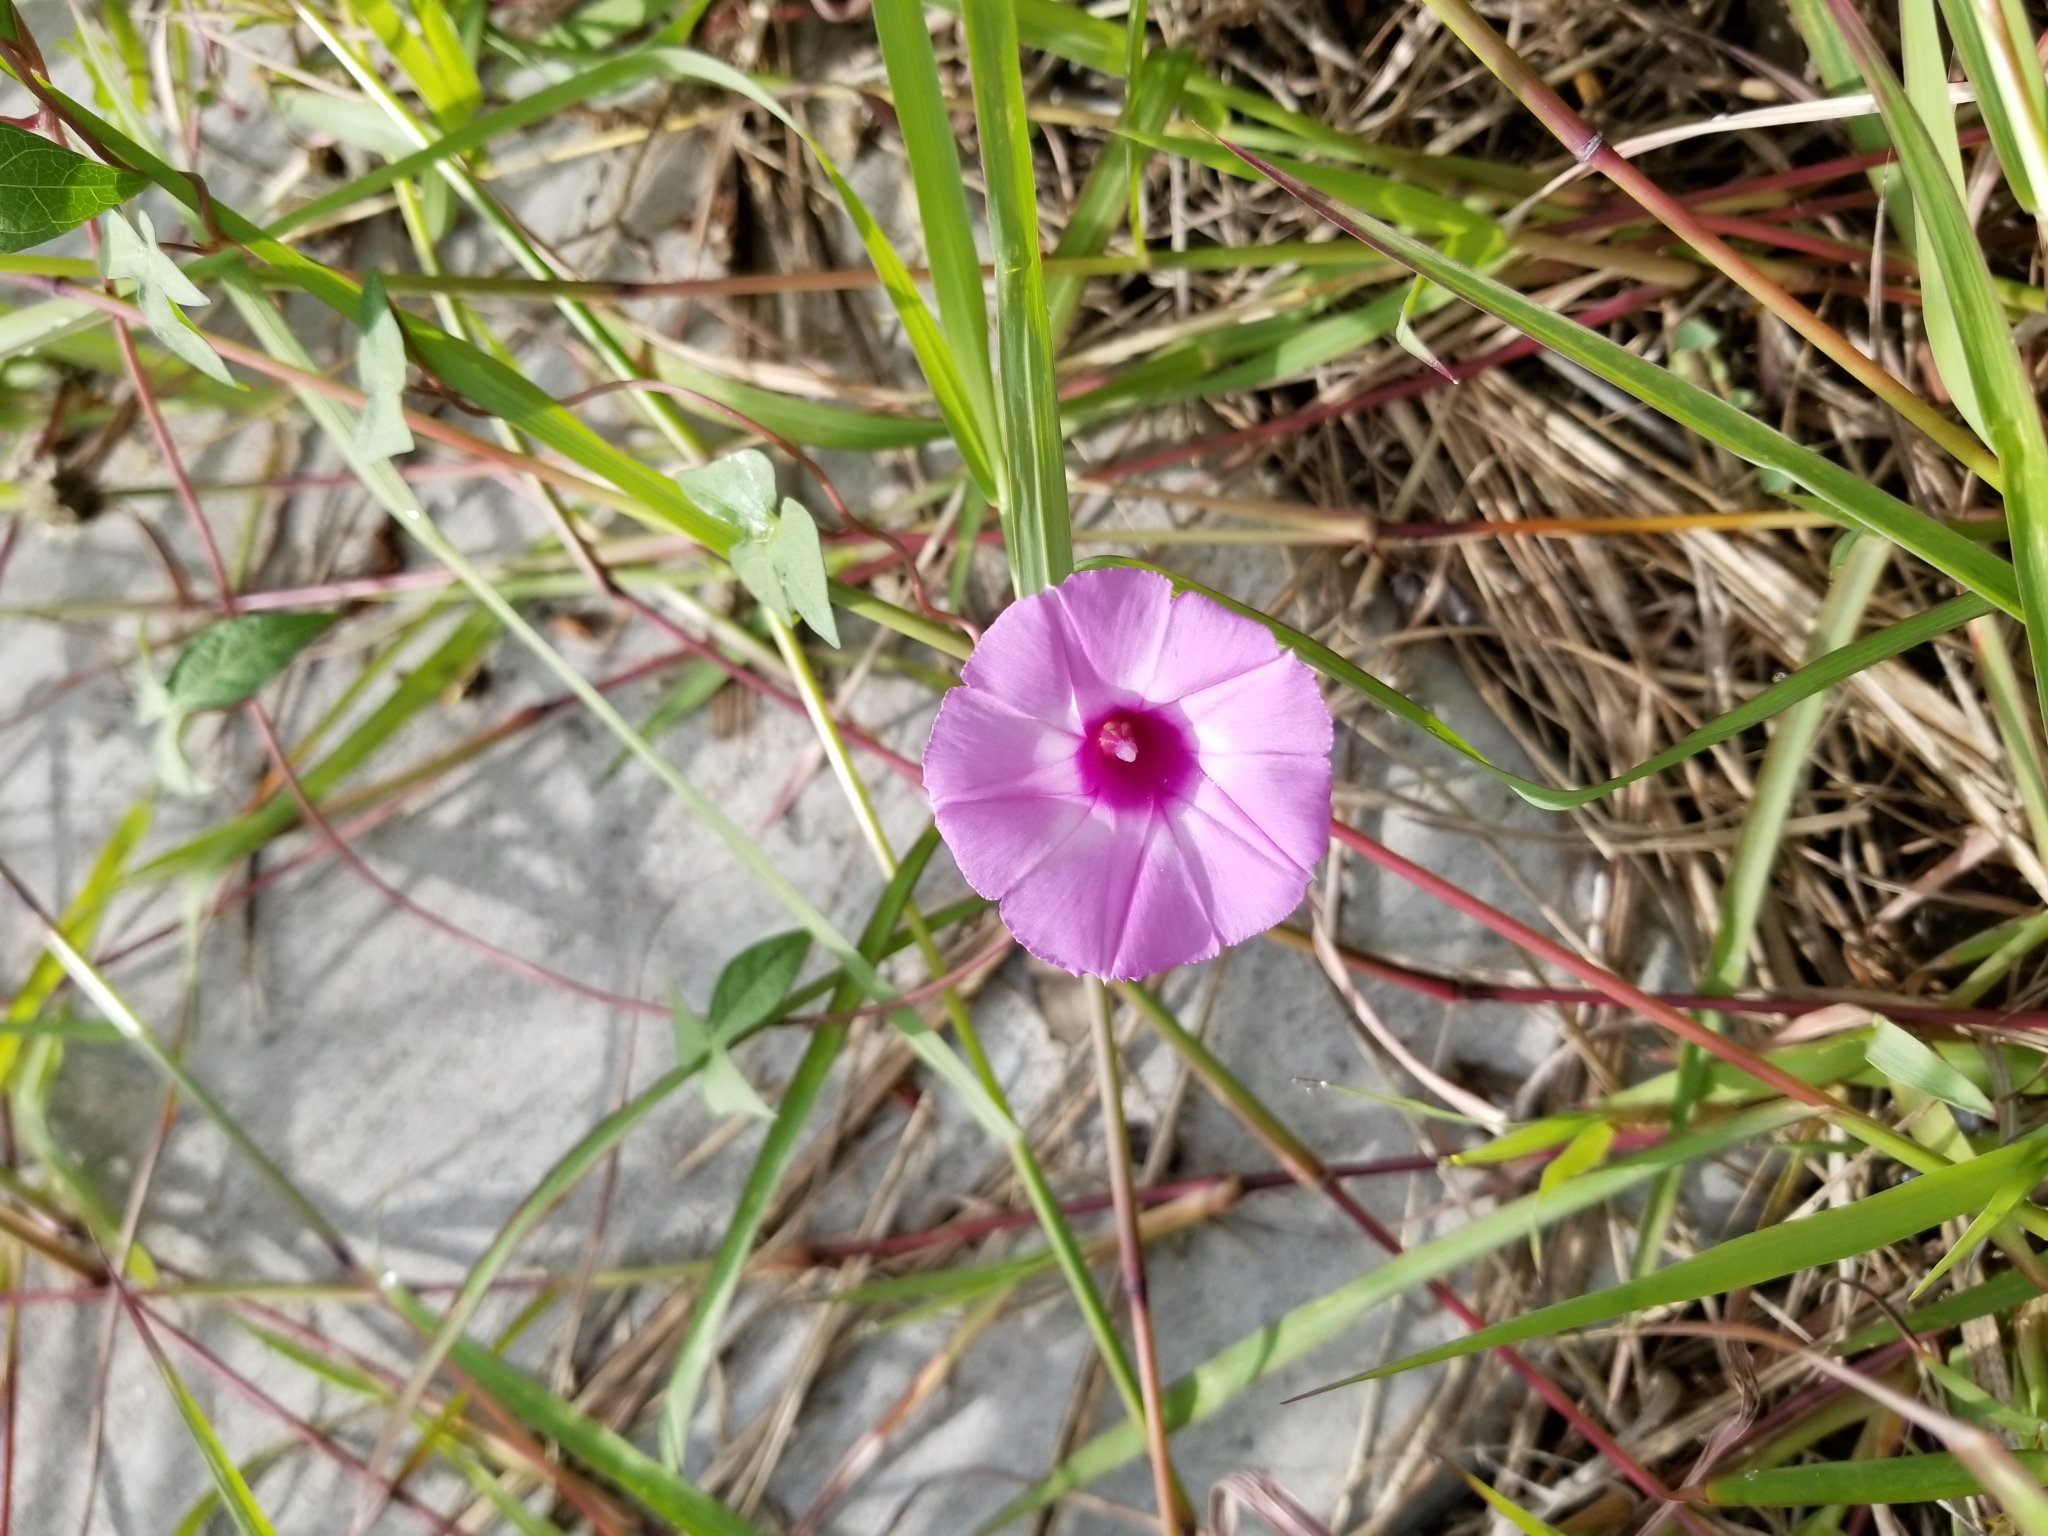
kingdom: Plantae
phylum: Tracheophyta
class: Magnoliopsida
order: Solanales
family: Convolvulaceae
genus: Ipomoea
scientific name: Ipomoea cordatotriloba
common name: Cotton morning glory
